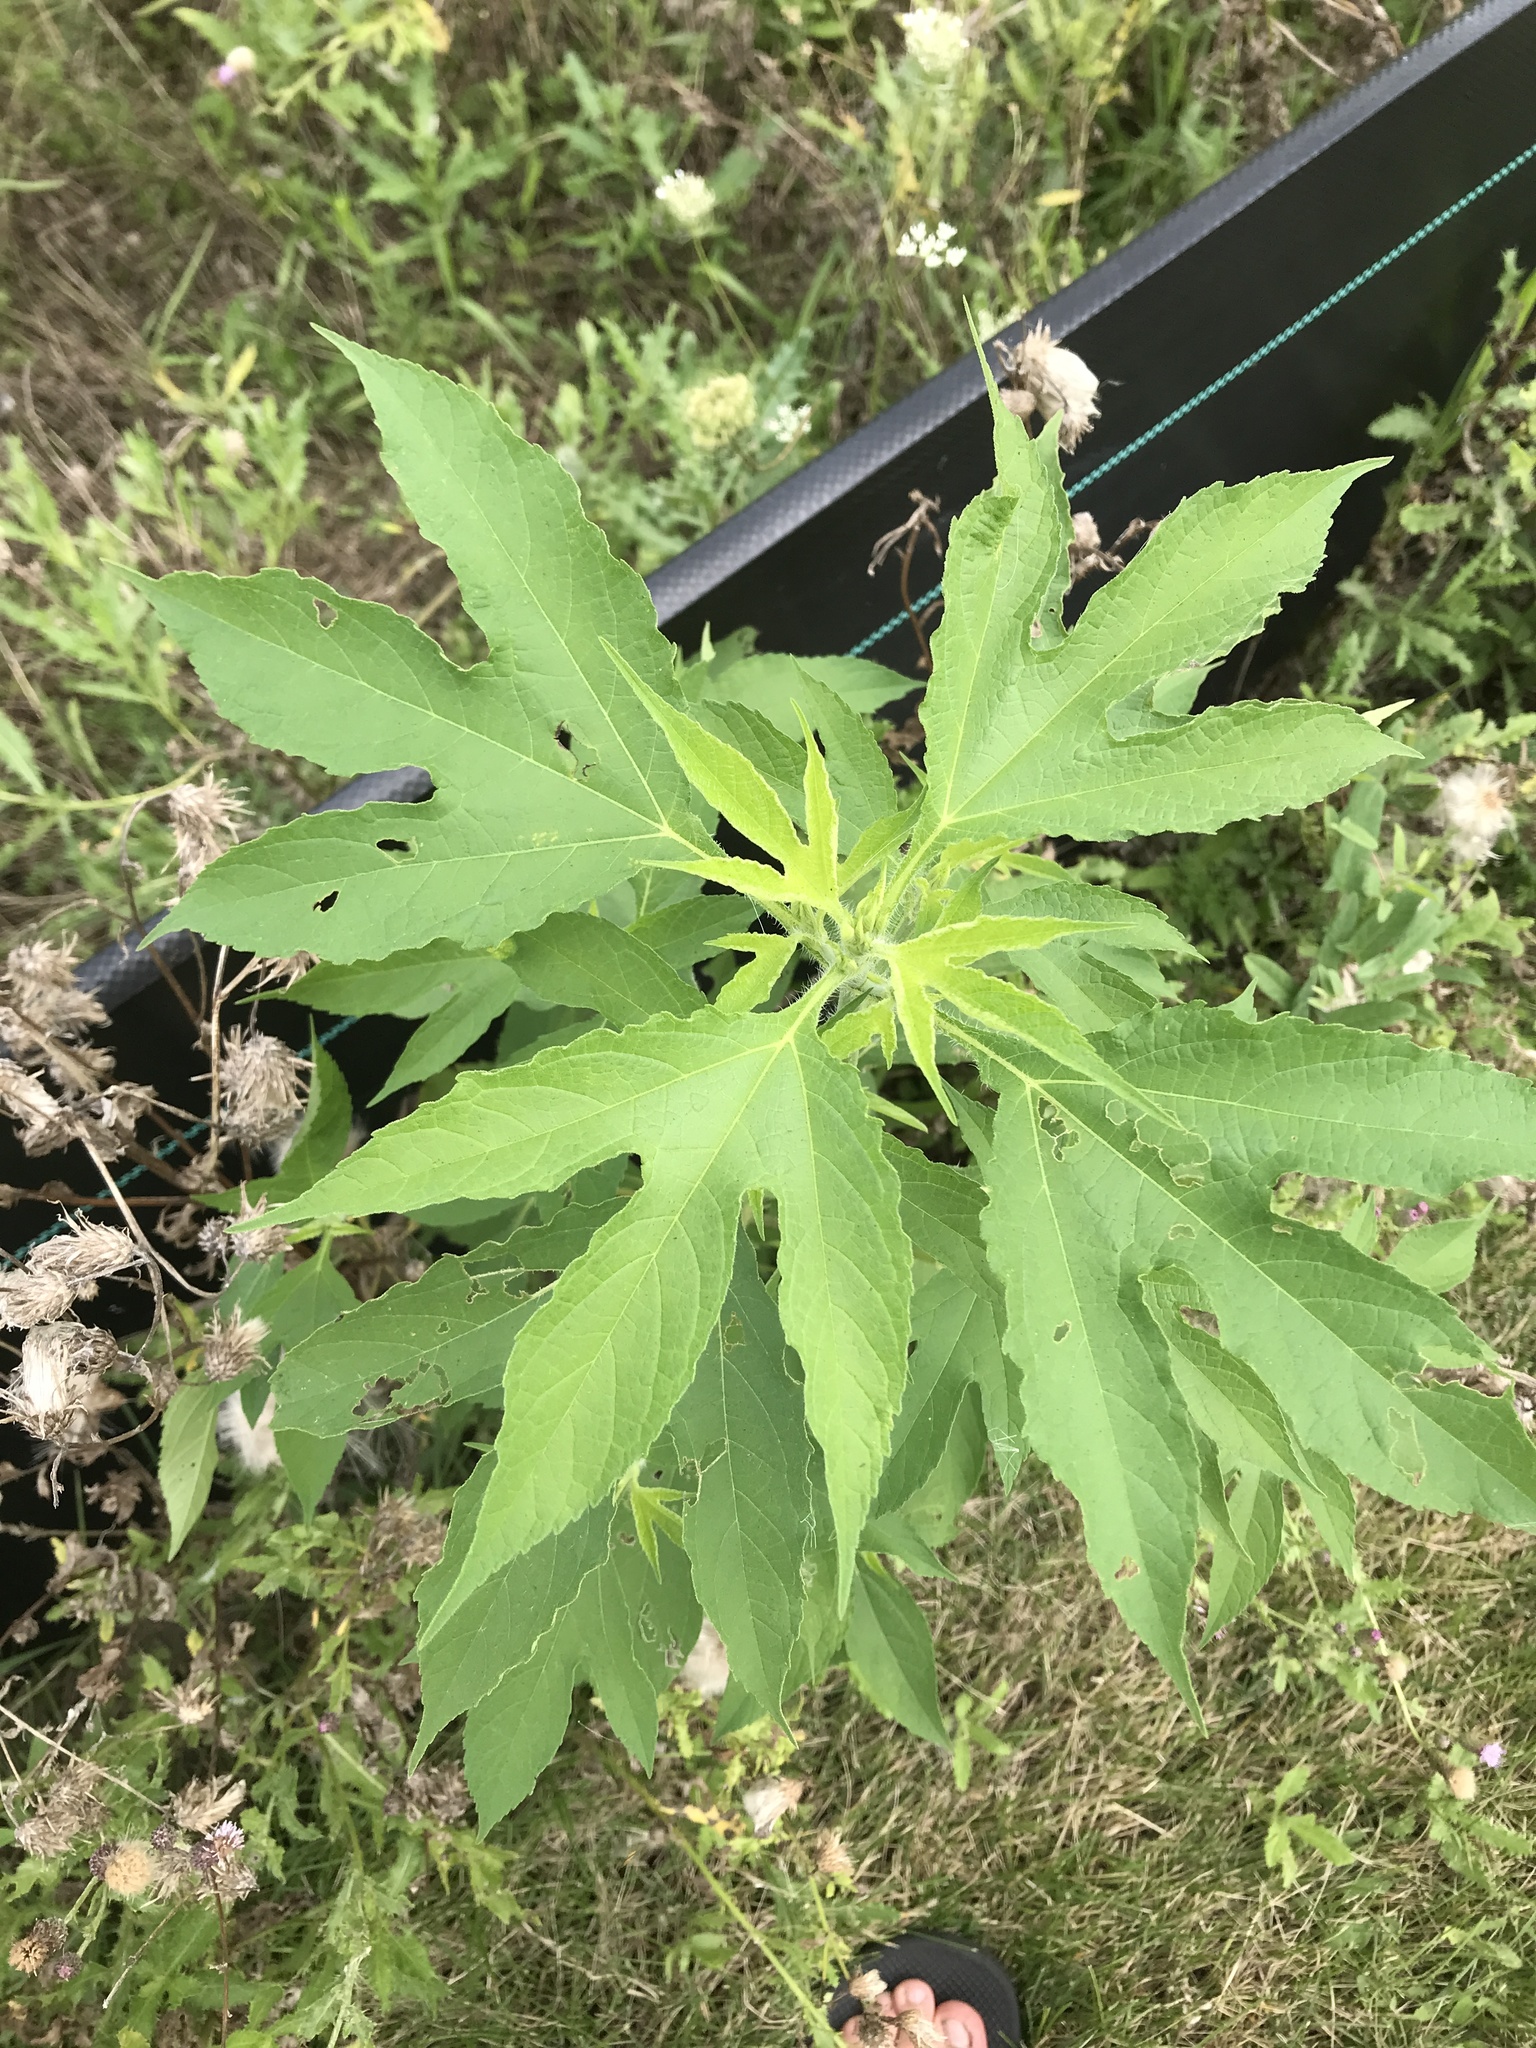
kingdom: Plantae
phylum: Tracheophyta
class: Magnoliopsida
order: Asterales
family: Asteraceae
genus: Ambrosia
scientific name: Ambrosia trifida
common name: Giant ragweed
